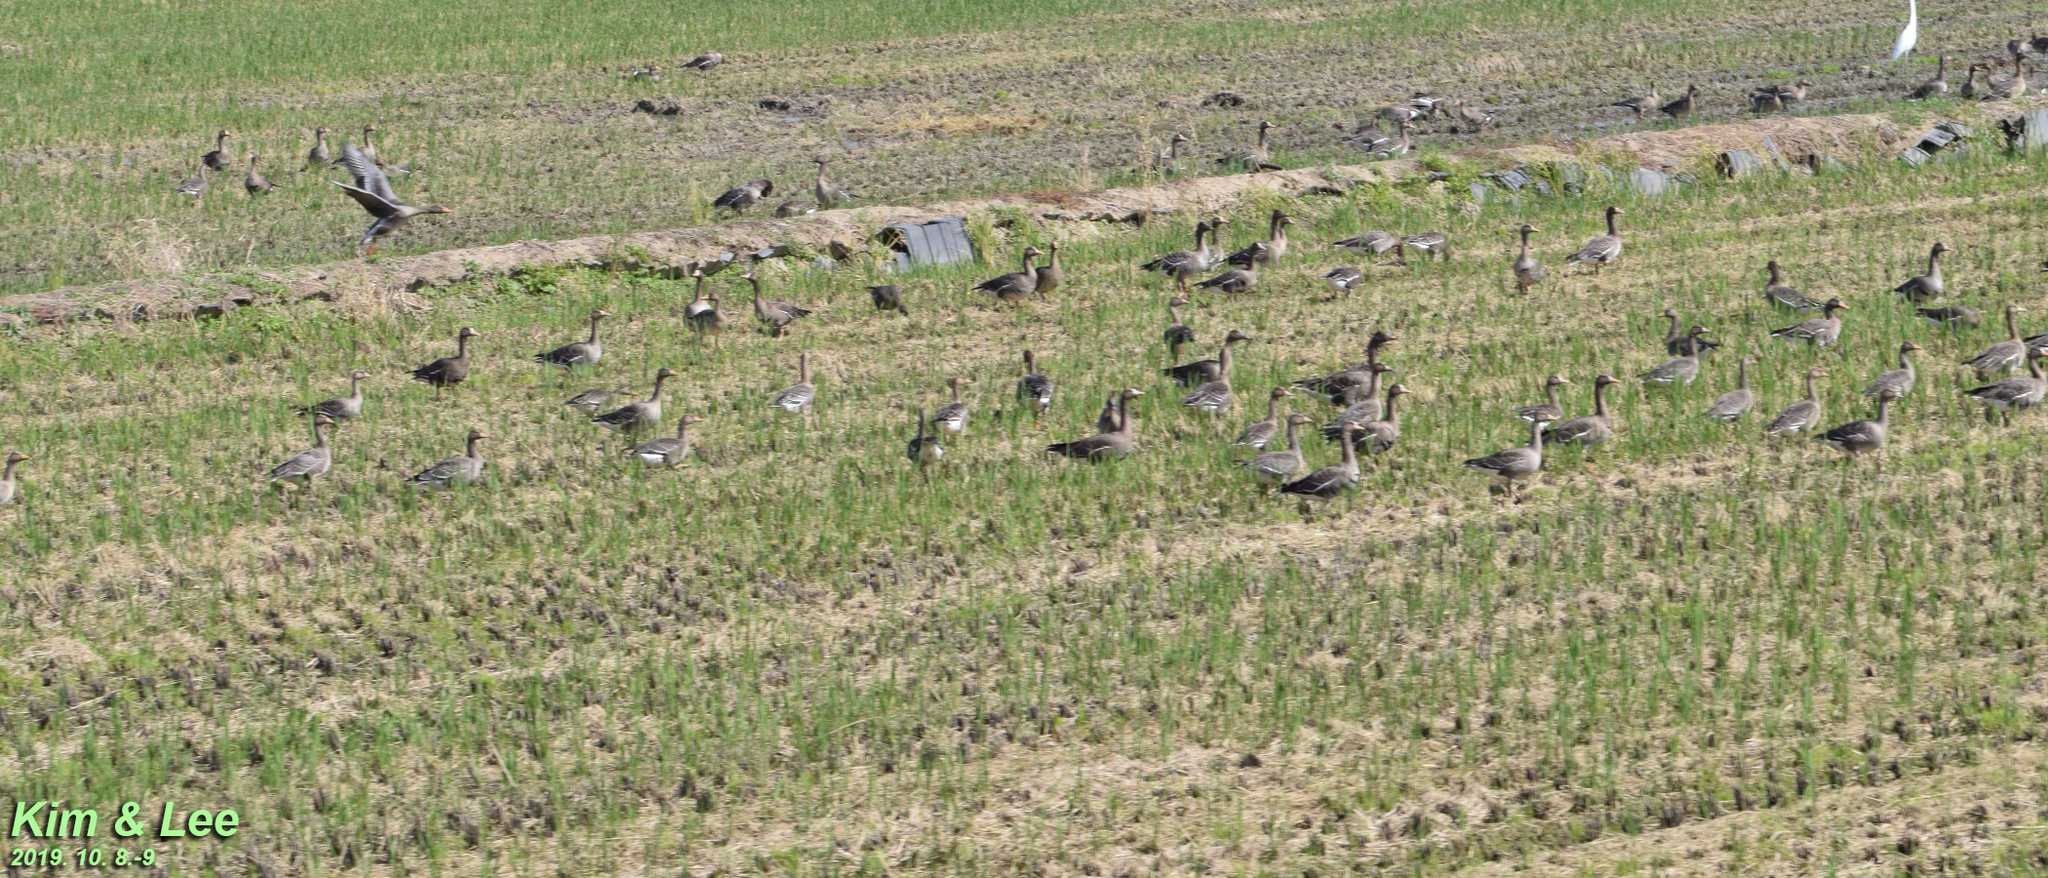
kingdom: Animalia
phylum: Chordata
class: Aves
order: Anseriformes
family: Anatidae
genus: Anser
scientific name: Anser albifrons
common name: Greater white-fronted goose
